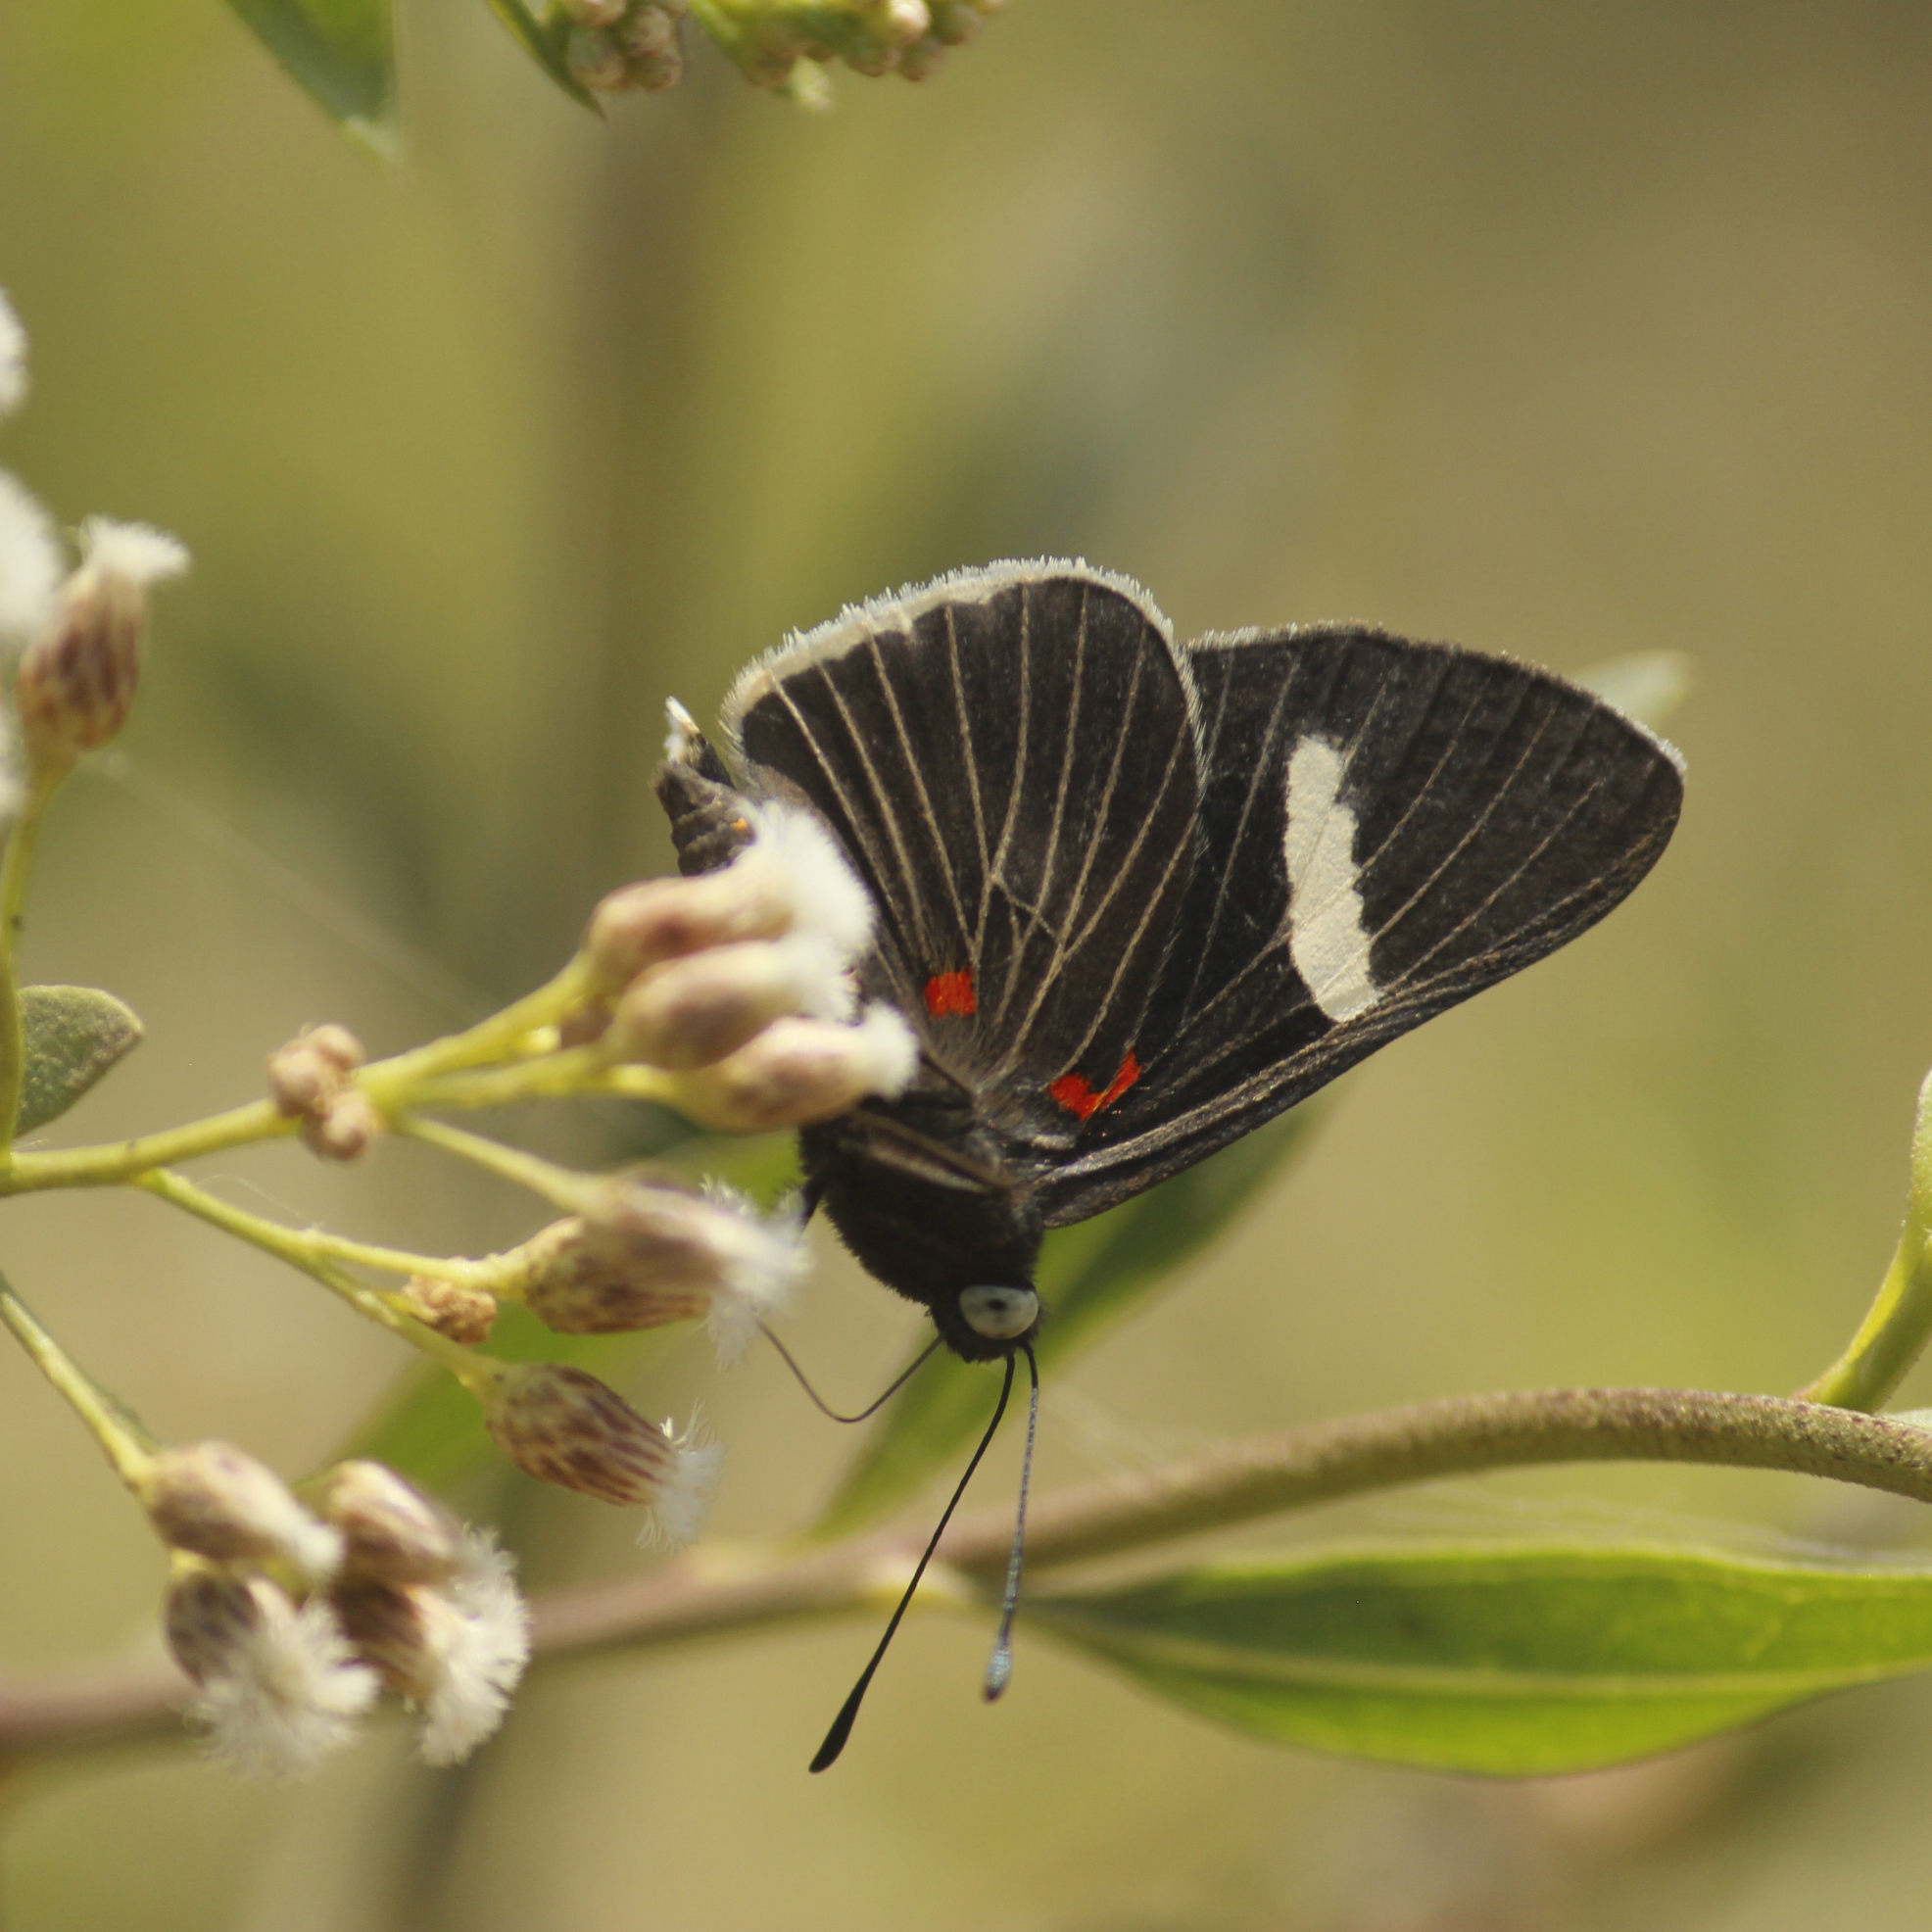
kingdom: Animalia
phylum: Arthropoda
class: Insecta
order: Lepidoptera
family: Lycaenidae
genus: Melanis
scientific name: Melanis
